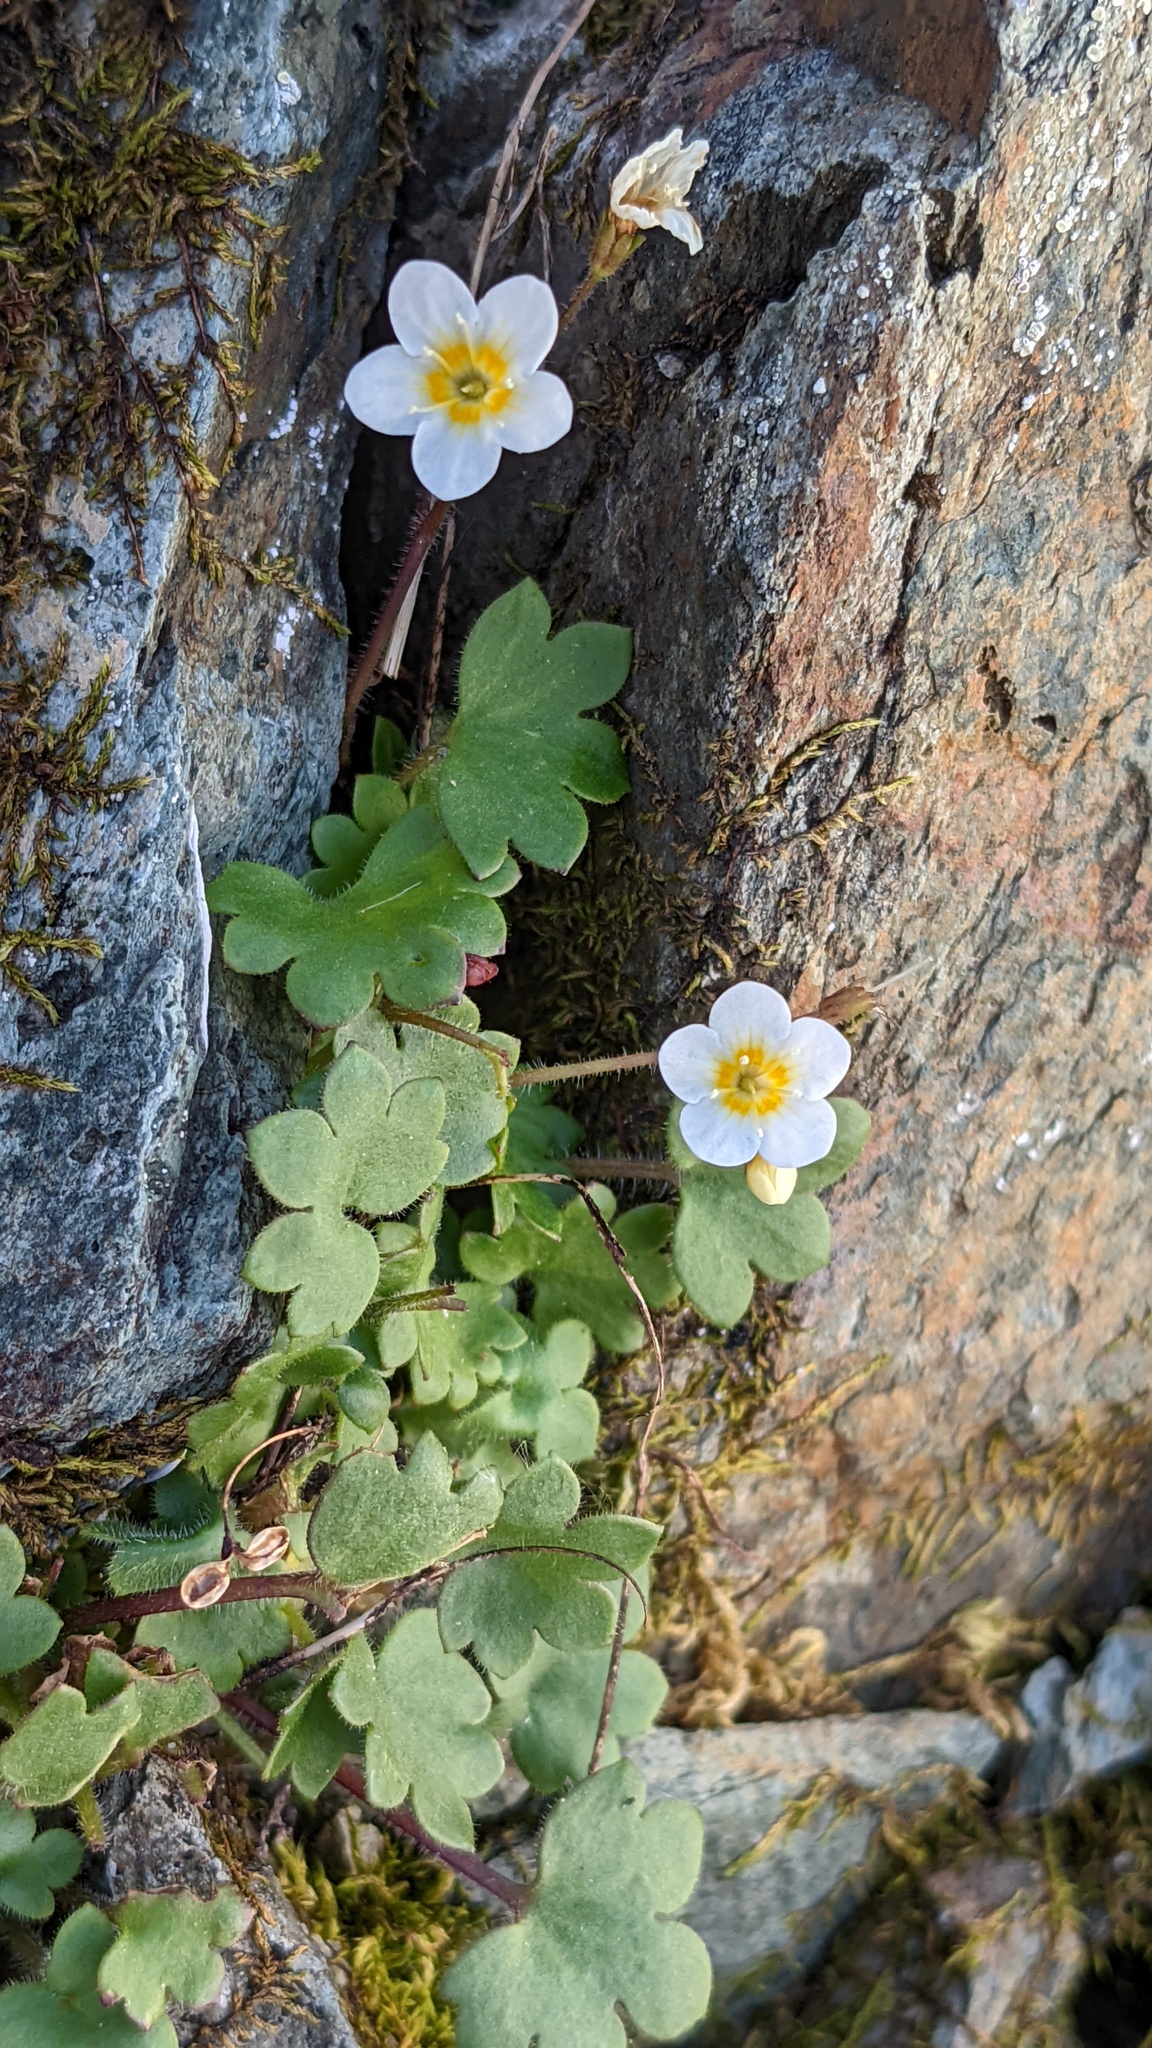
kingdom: Plantae
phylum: Tracheophyta
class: Magnoliopsida
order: Boraginales
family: Hydrophyllaceae
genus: Romanzoffia
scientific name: Romanzoffia sitchensis
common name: Sitka mistmaid
